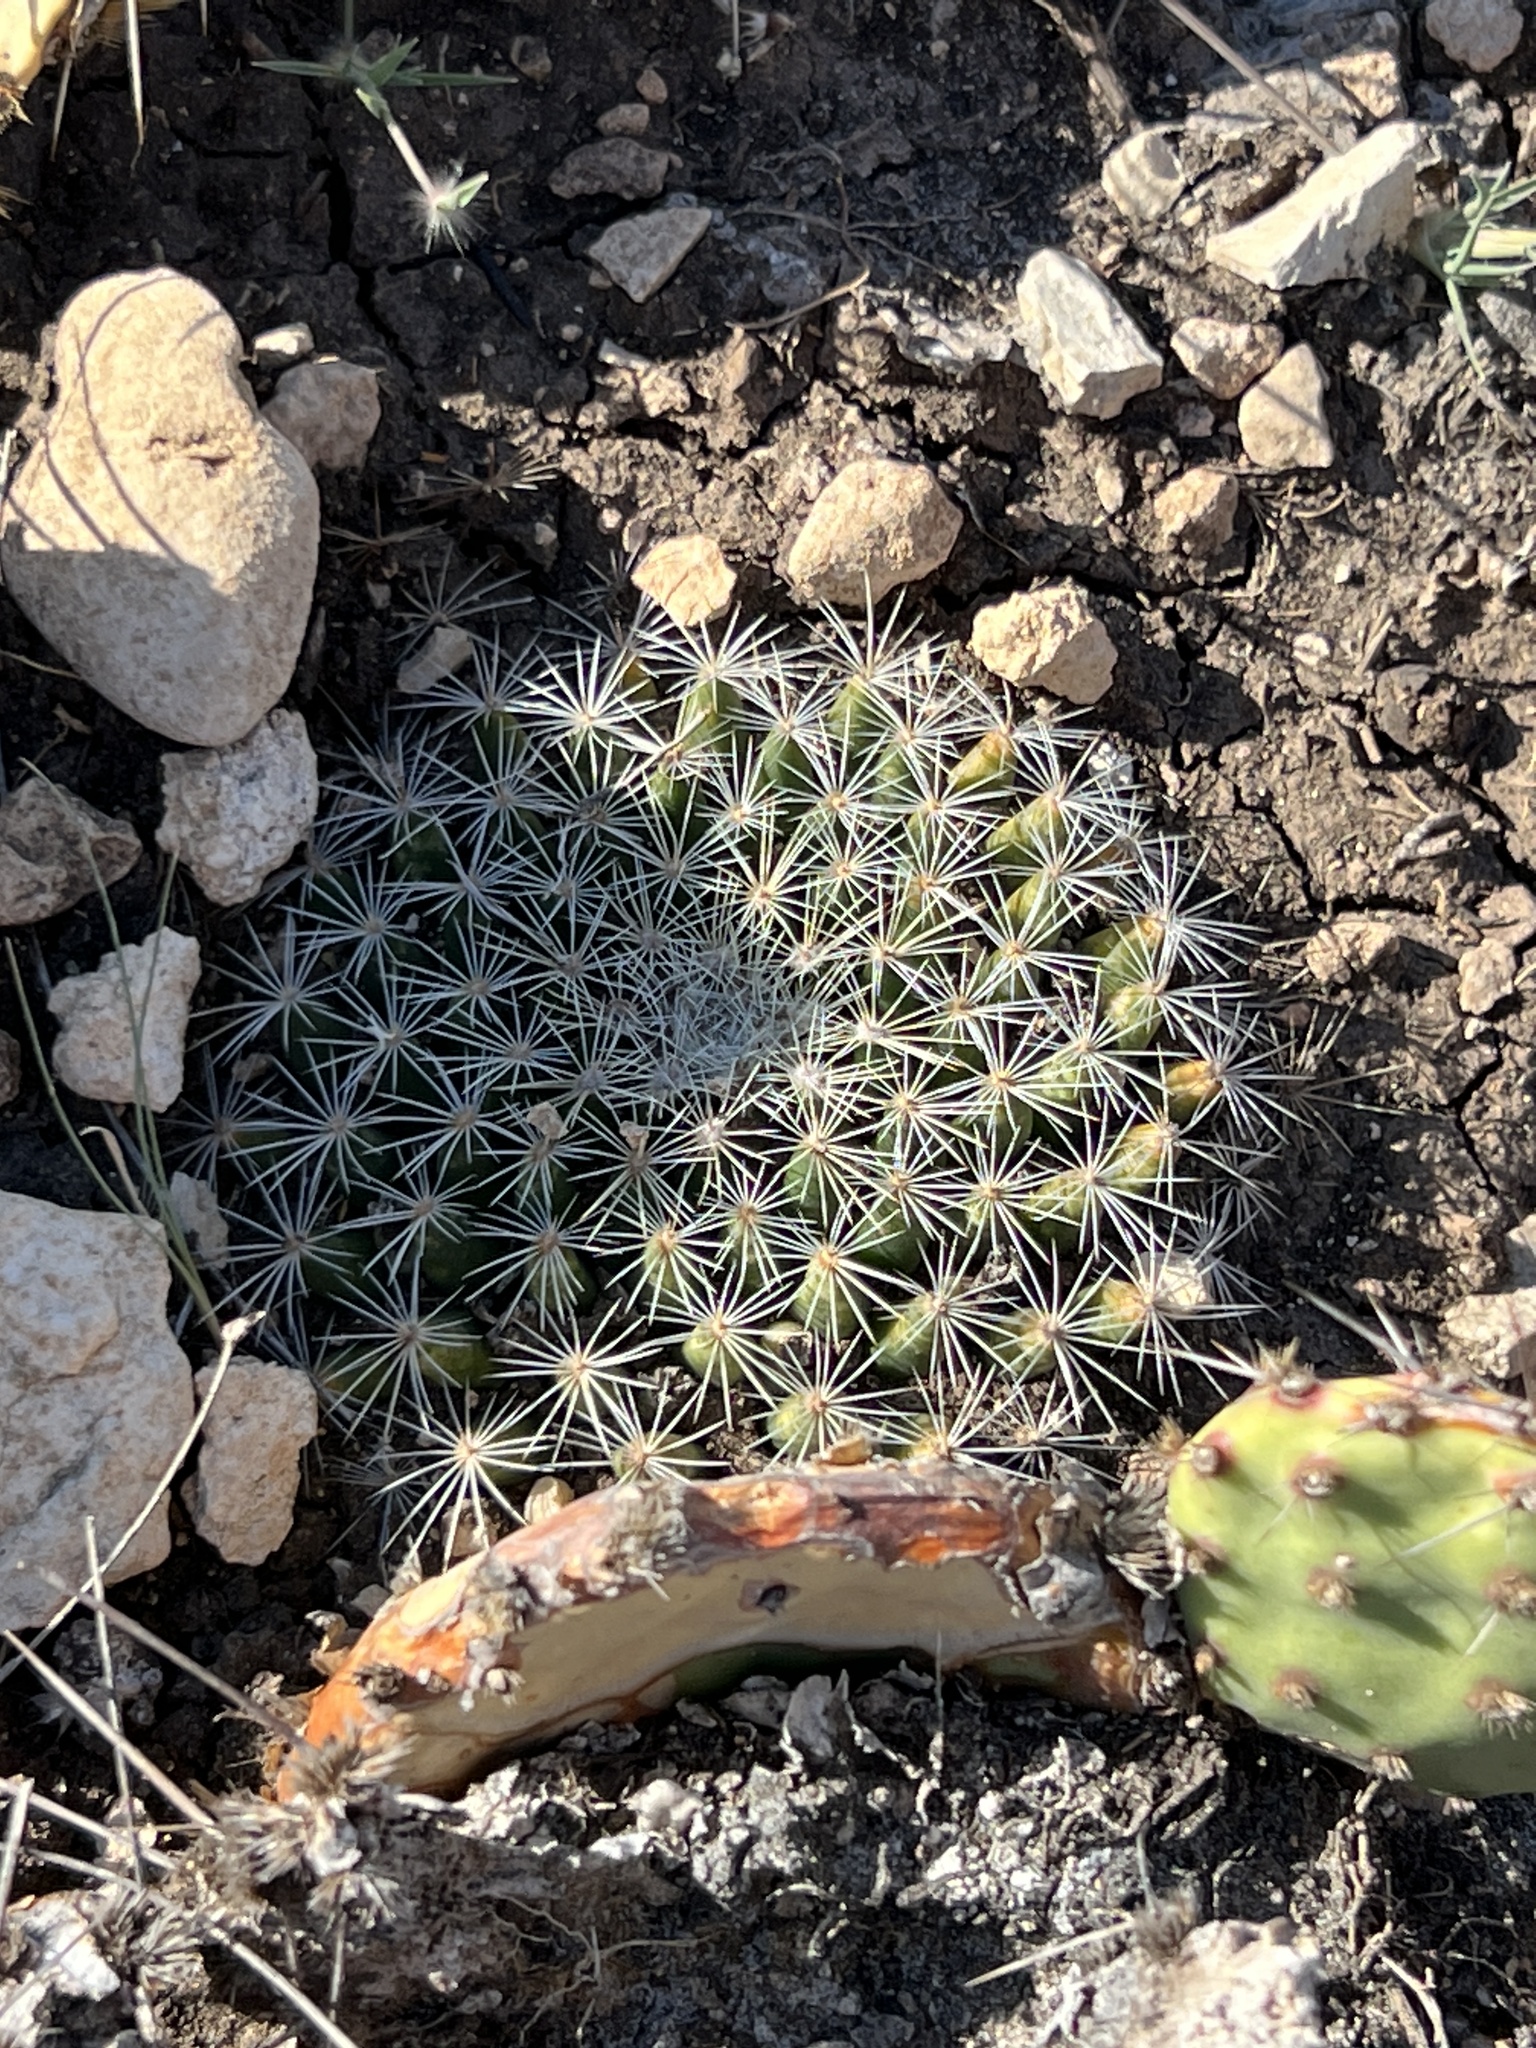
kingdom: Plantae
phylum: Tracheophyta
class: Magnoliopsida
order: Caryophyllales
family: Cactaceae
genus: Mammillaria
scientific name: Mammillaria heyderi
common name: Little nipple cactus
